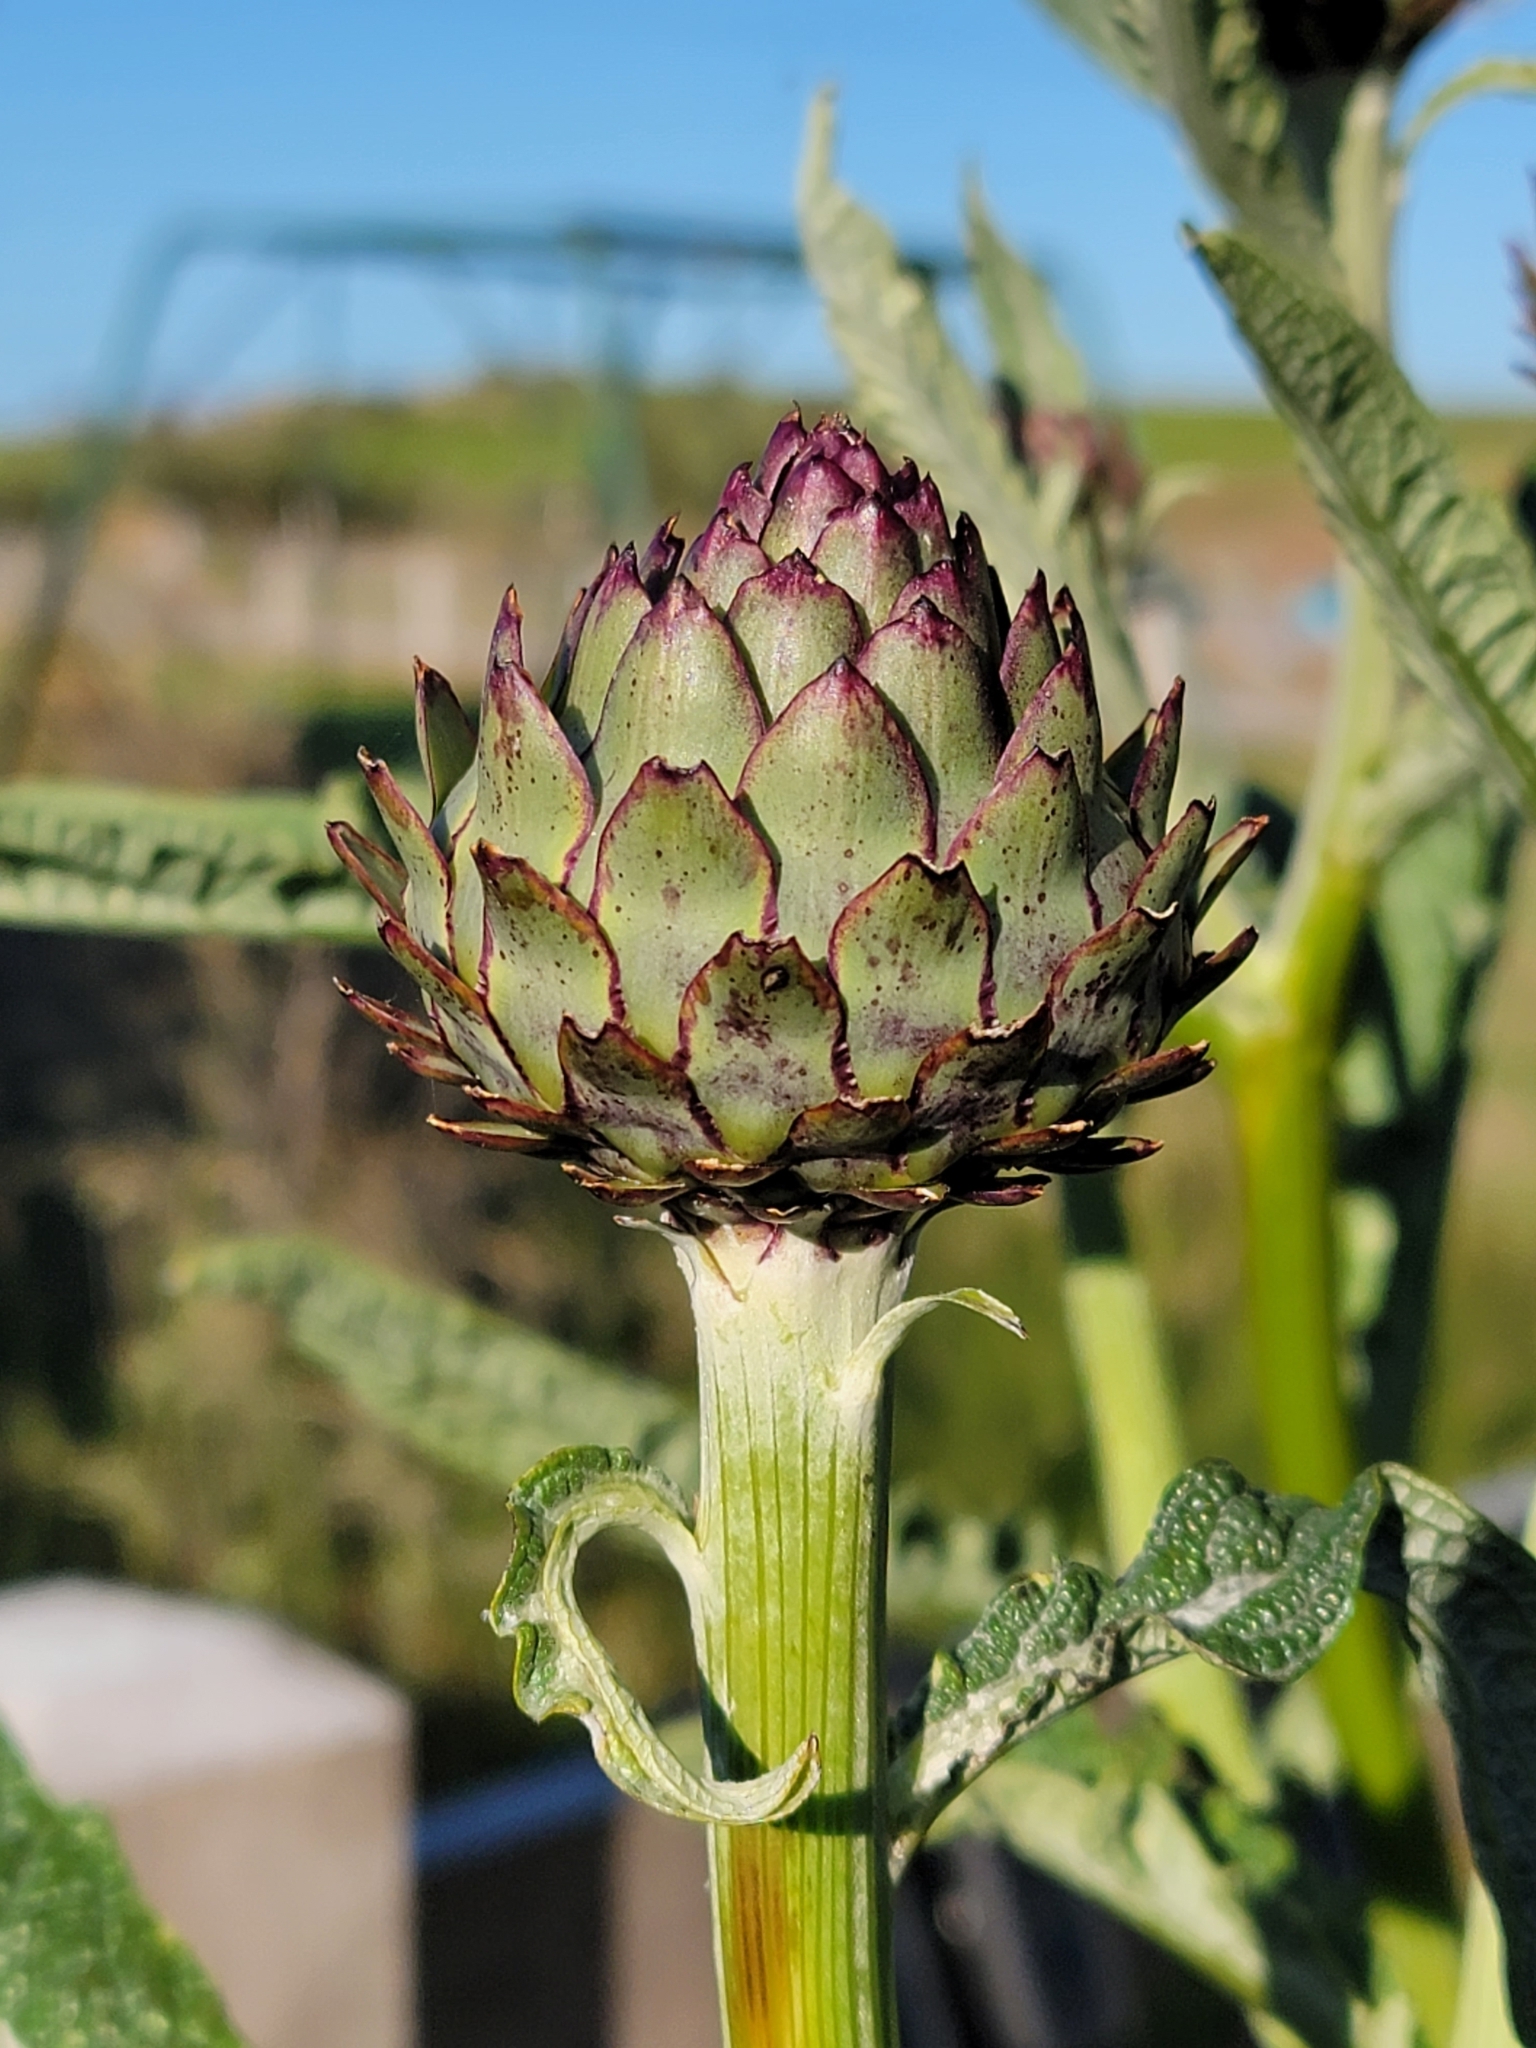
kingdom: Plantae
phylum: Tracheophyta
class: Magnoliopsida
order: Asterales
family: Asteraceae
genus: Cynara
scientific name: Cynara cardunculus
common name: Globe artichoke
